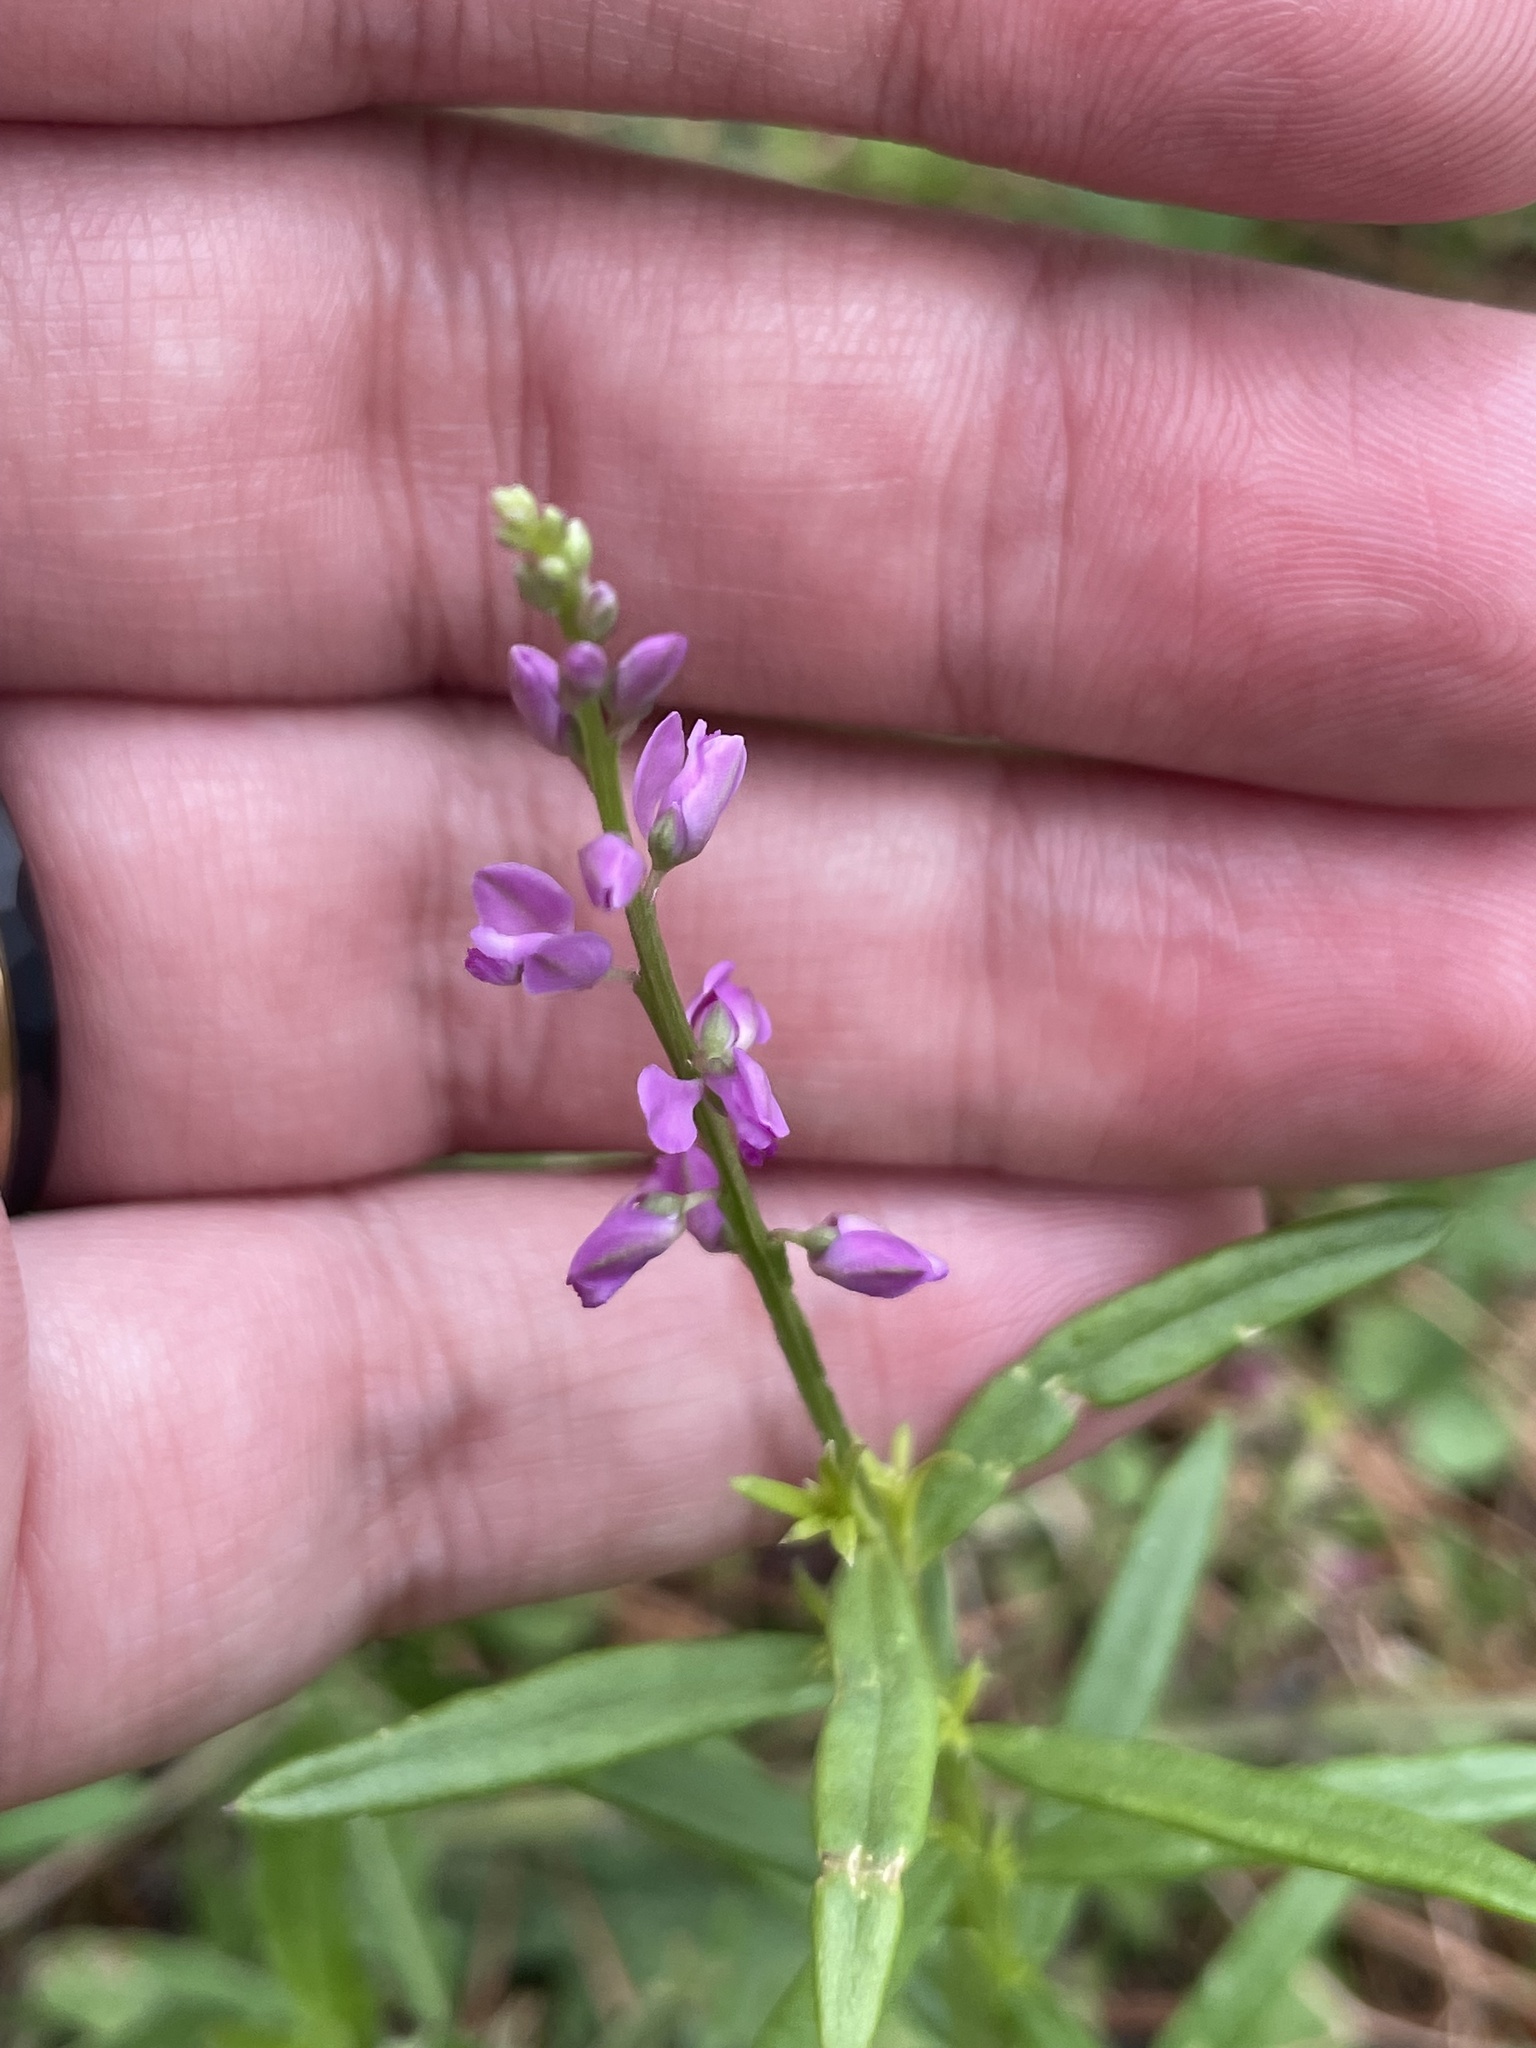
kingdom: Plantae
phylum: Tracheophyta
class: Magnoliopsida
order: Fabales
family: Polygalaceae
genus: Polygala
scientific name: Polygala polygama
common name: Bitter milkwort
